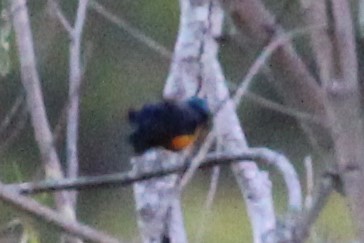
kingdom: Animalia
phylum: Chordata
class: Aves
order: Passeriformes
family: Fringillidae
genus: Euphonia
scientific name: Euphonia elegantissima
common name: Elegant euphonia
